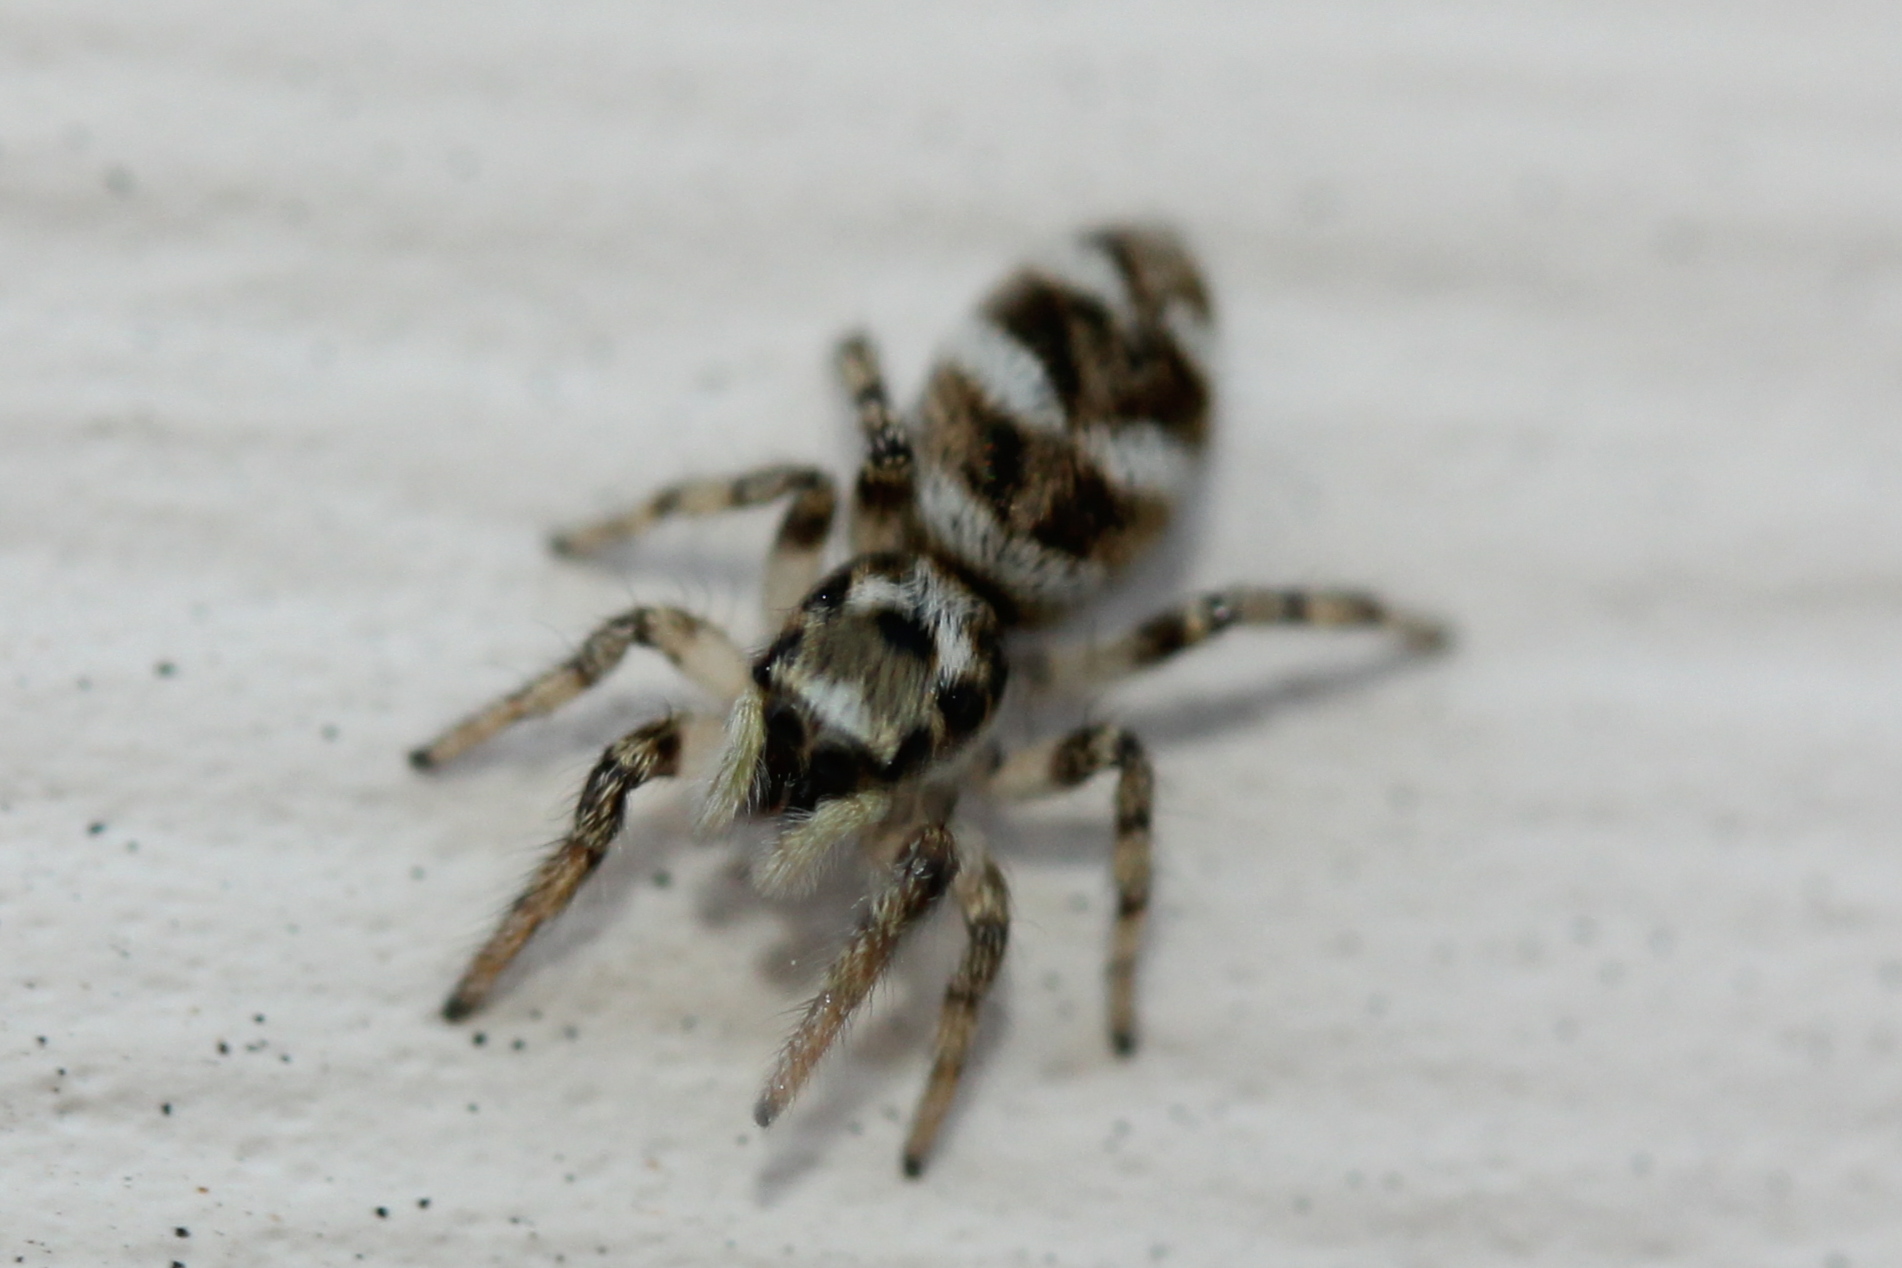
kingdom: Animalia
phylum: Arthropoda
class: Arachnida
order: Araneae
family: Salticidae
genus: Salticus
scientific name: Salticus scenicus
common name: Zebra jumper
